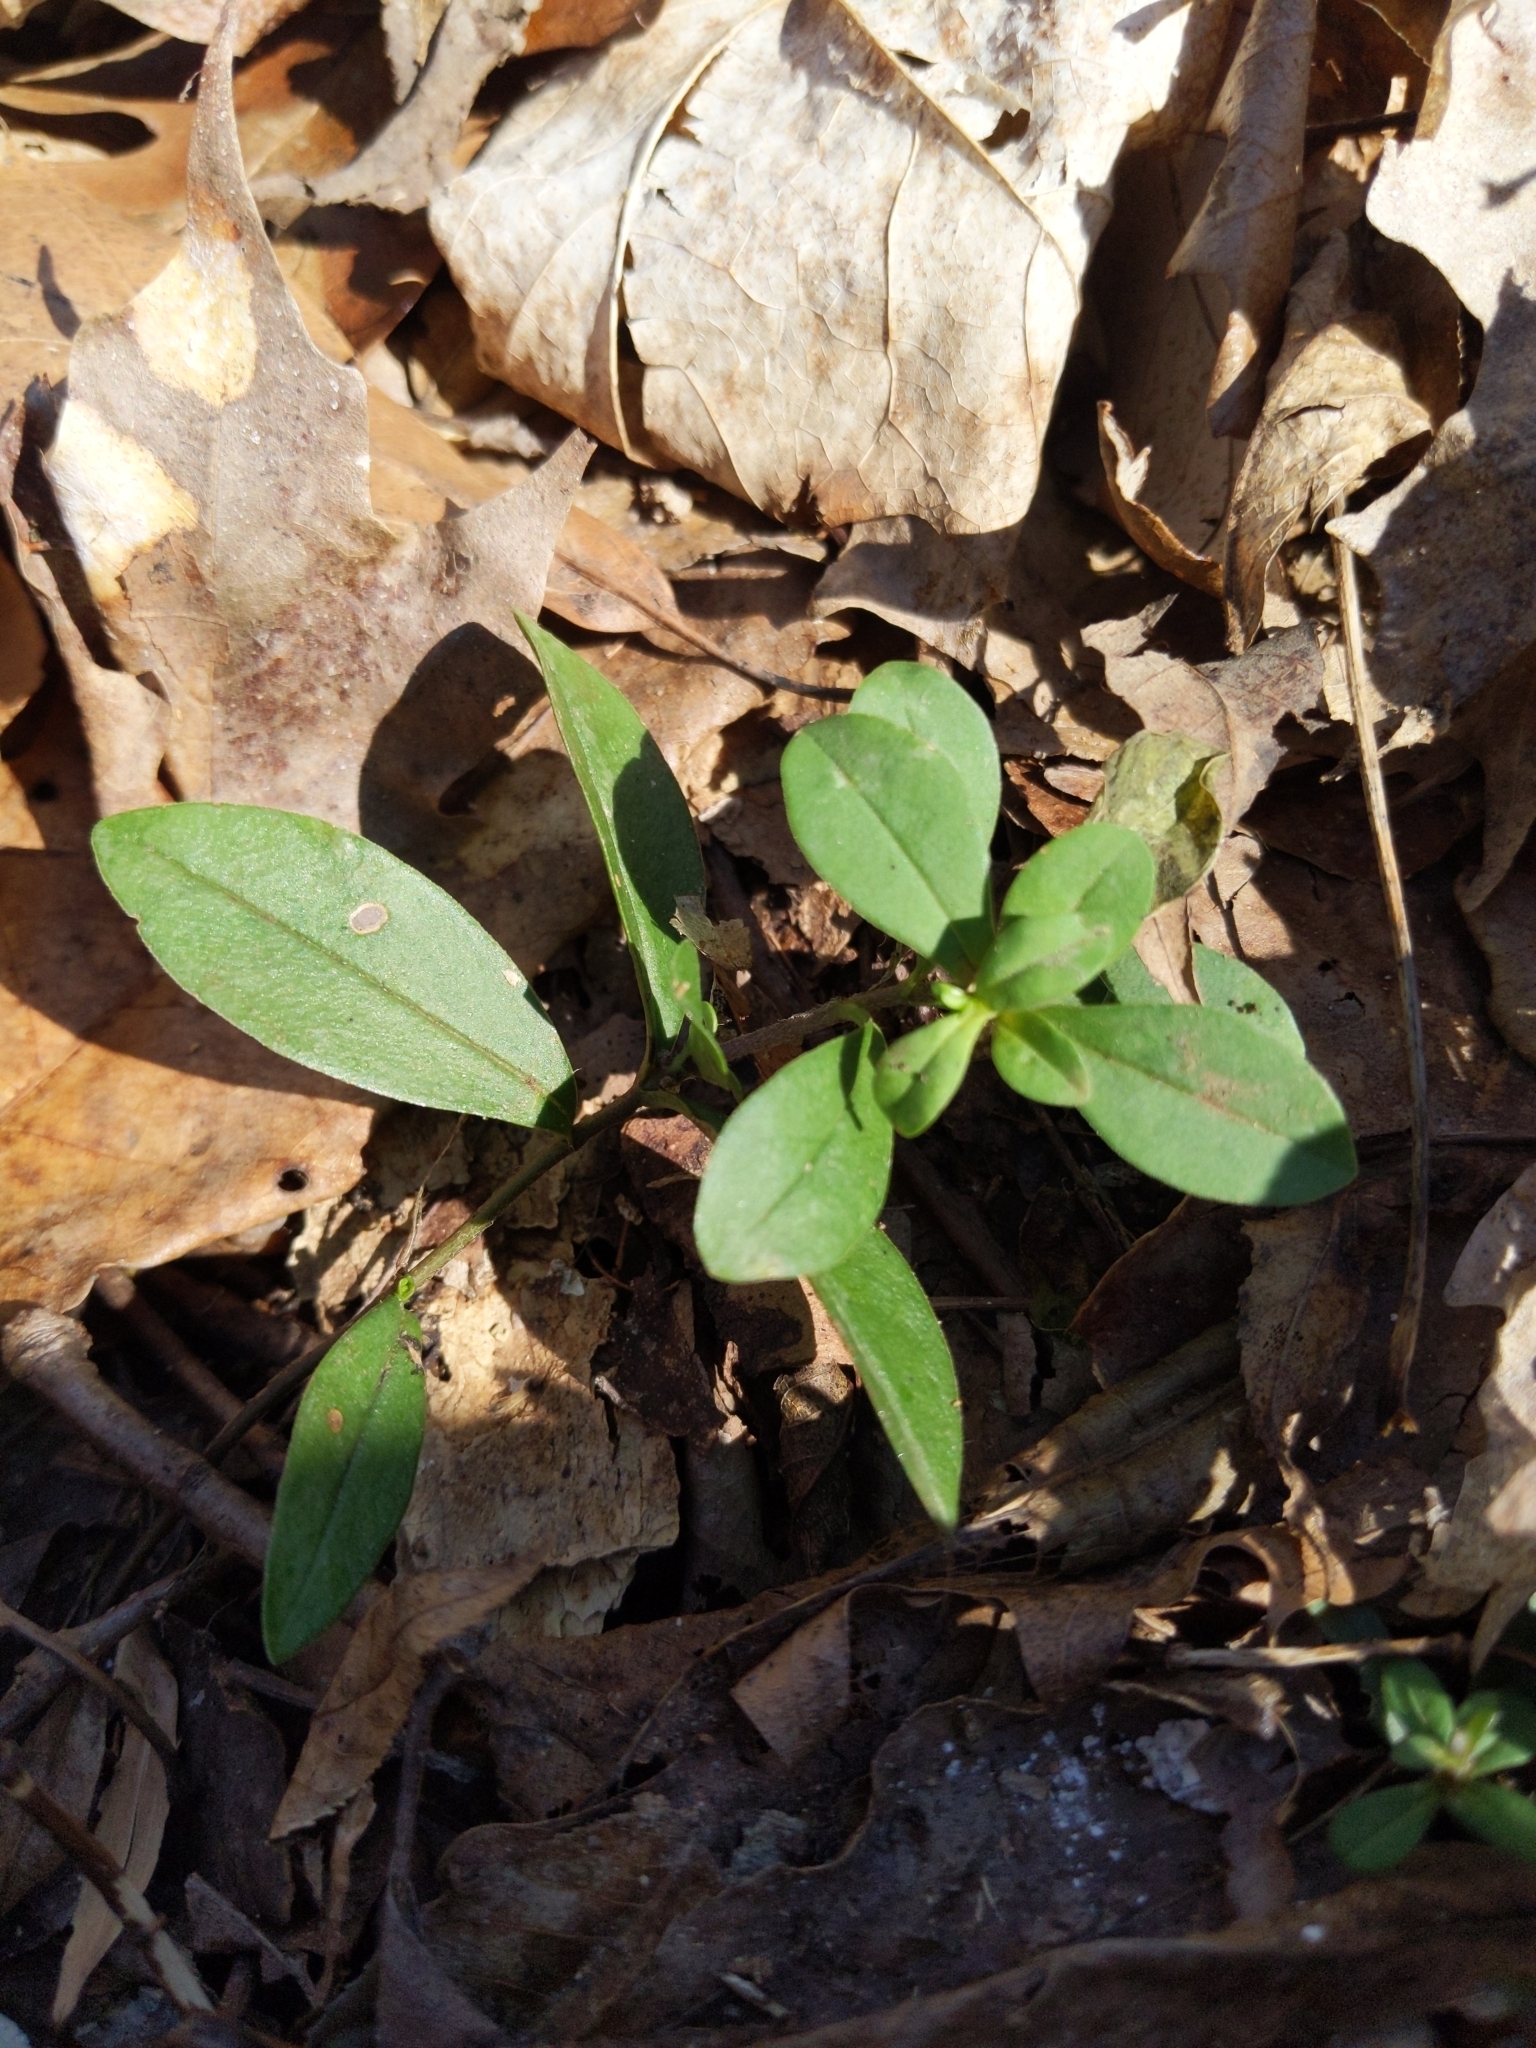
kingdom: Plantae
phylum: Tracheophyta
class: Magnoliopsida
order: Ericales
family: Polemoniaceae
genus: Phlox
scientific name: Phlox divaricata
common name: Blue phlox
